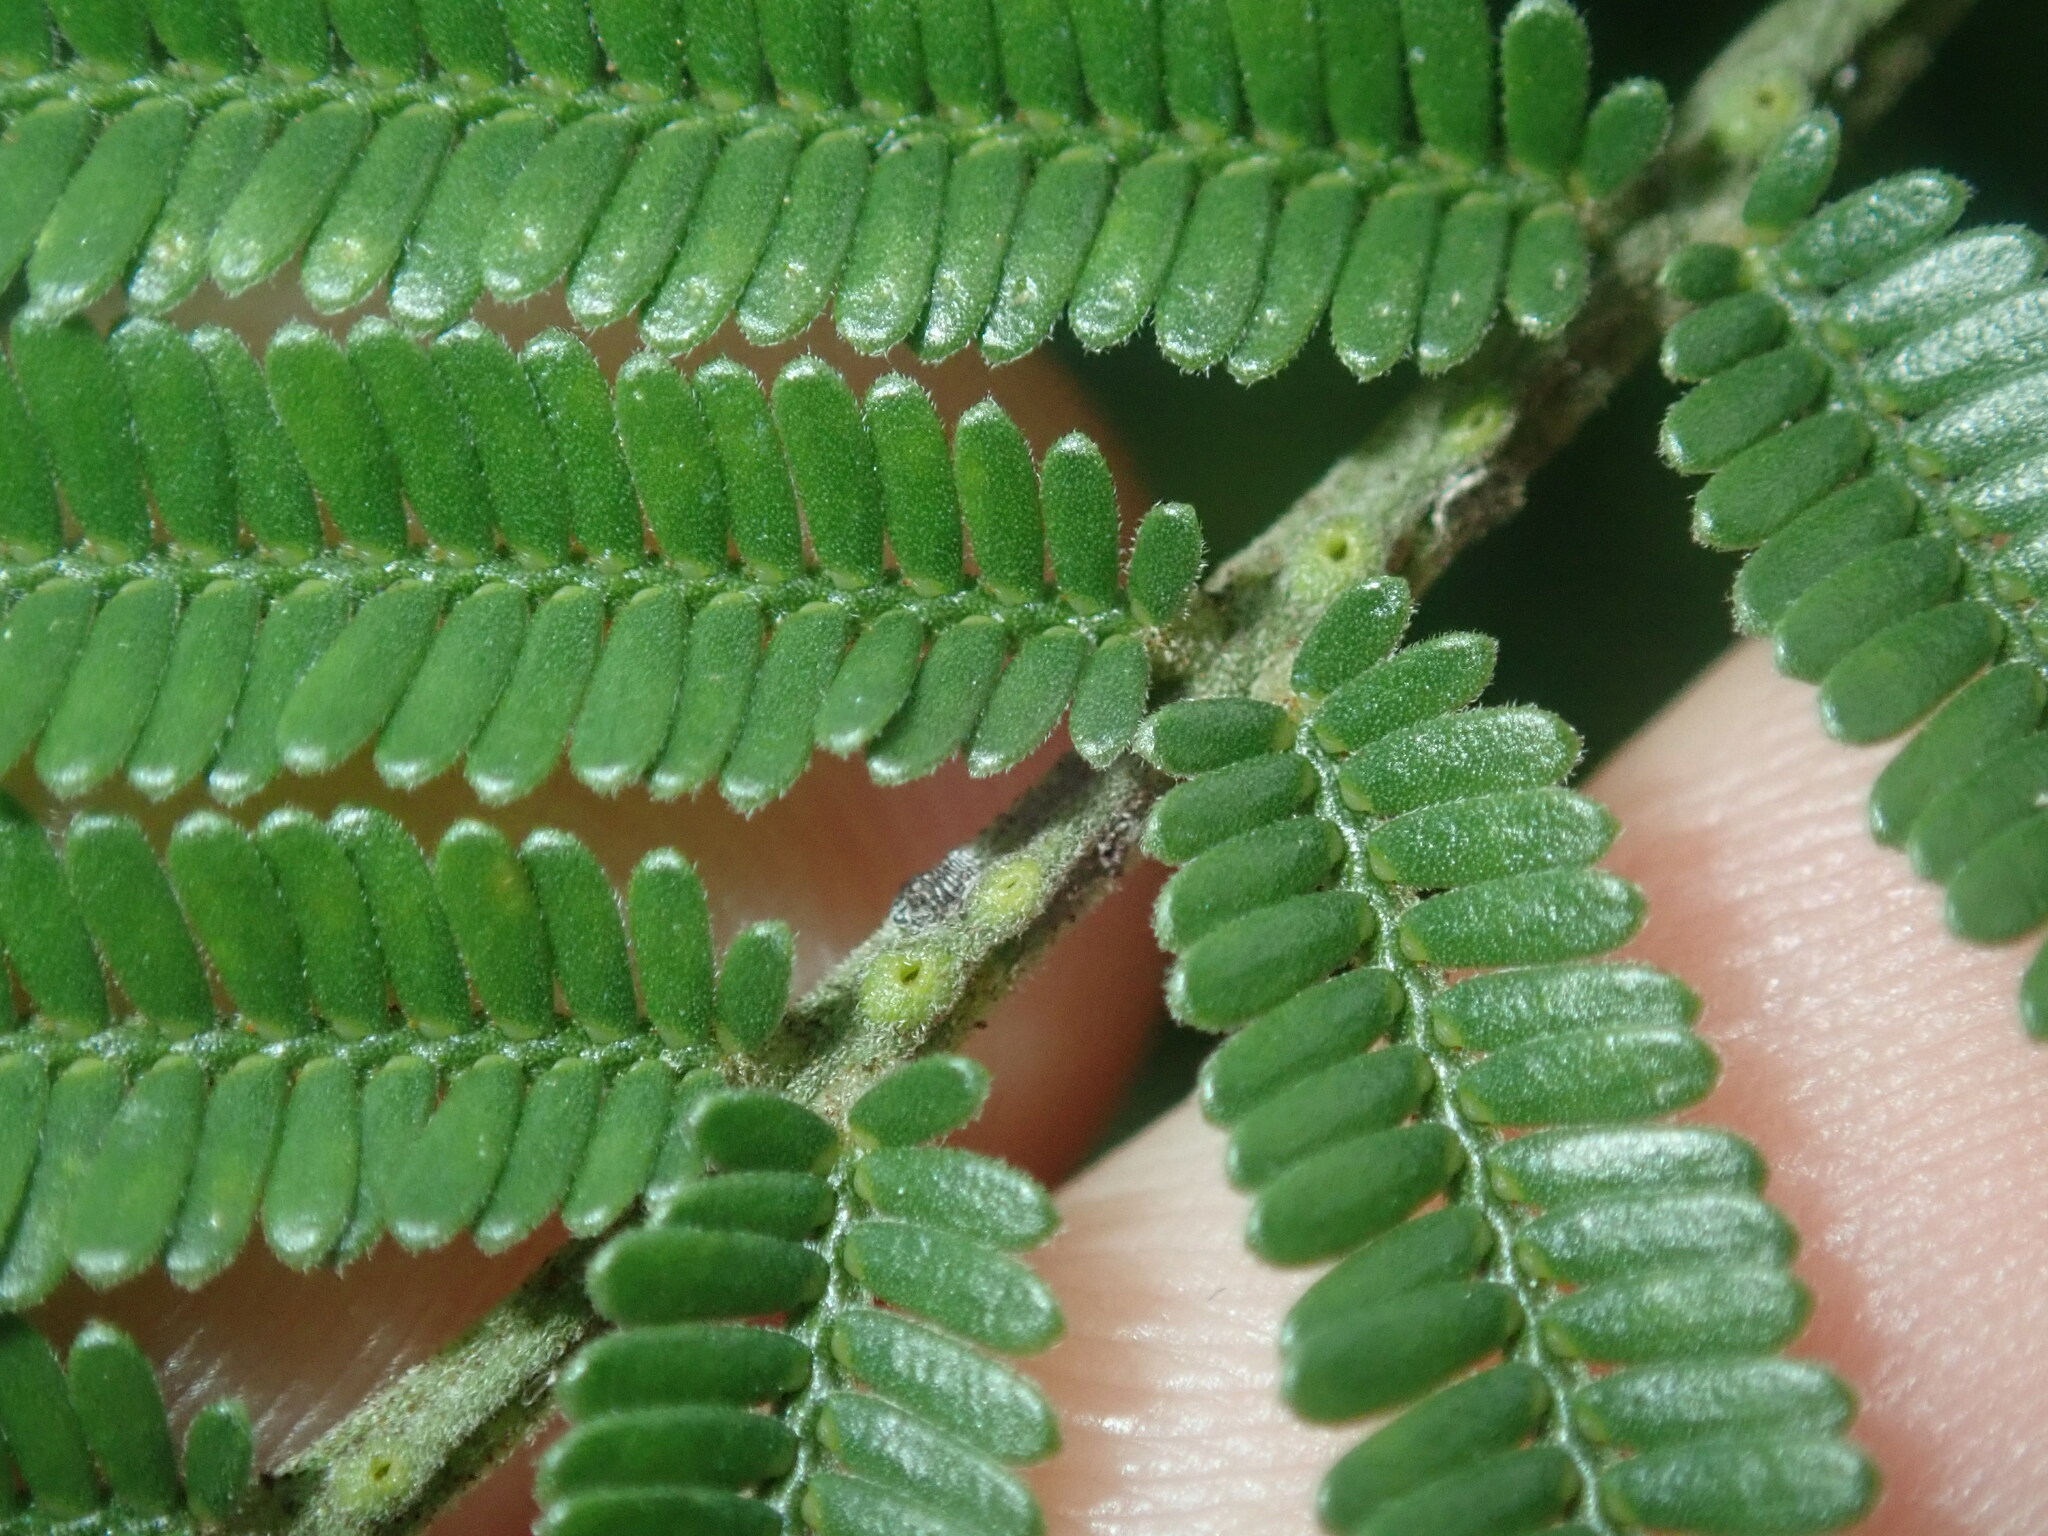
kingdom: Plantae
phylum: Tracheophyta
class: Magnoliopsida
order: Fabales
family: Fabaceae
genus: Acacia
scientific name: Acacia parramattensis
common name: Sydney green wattle
